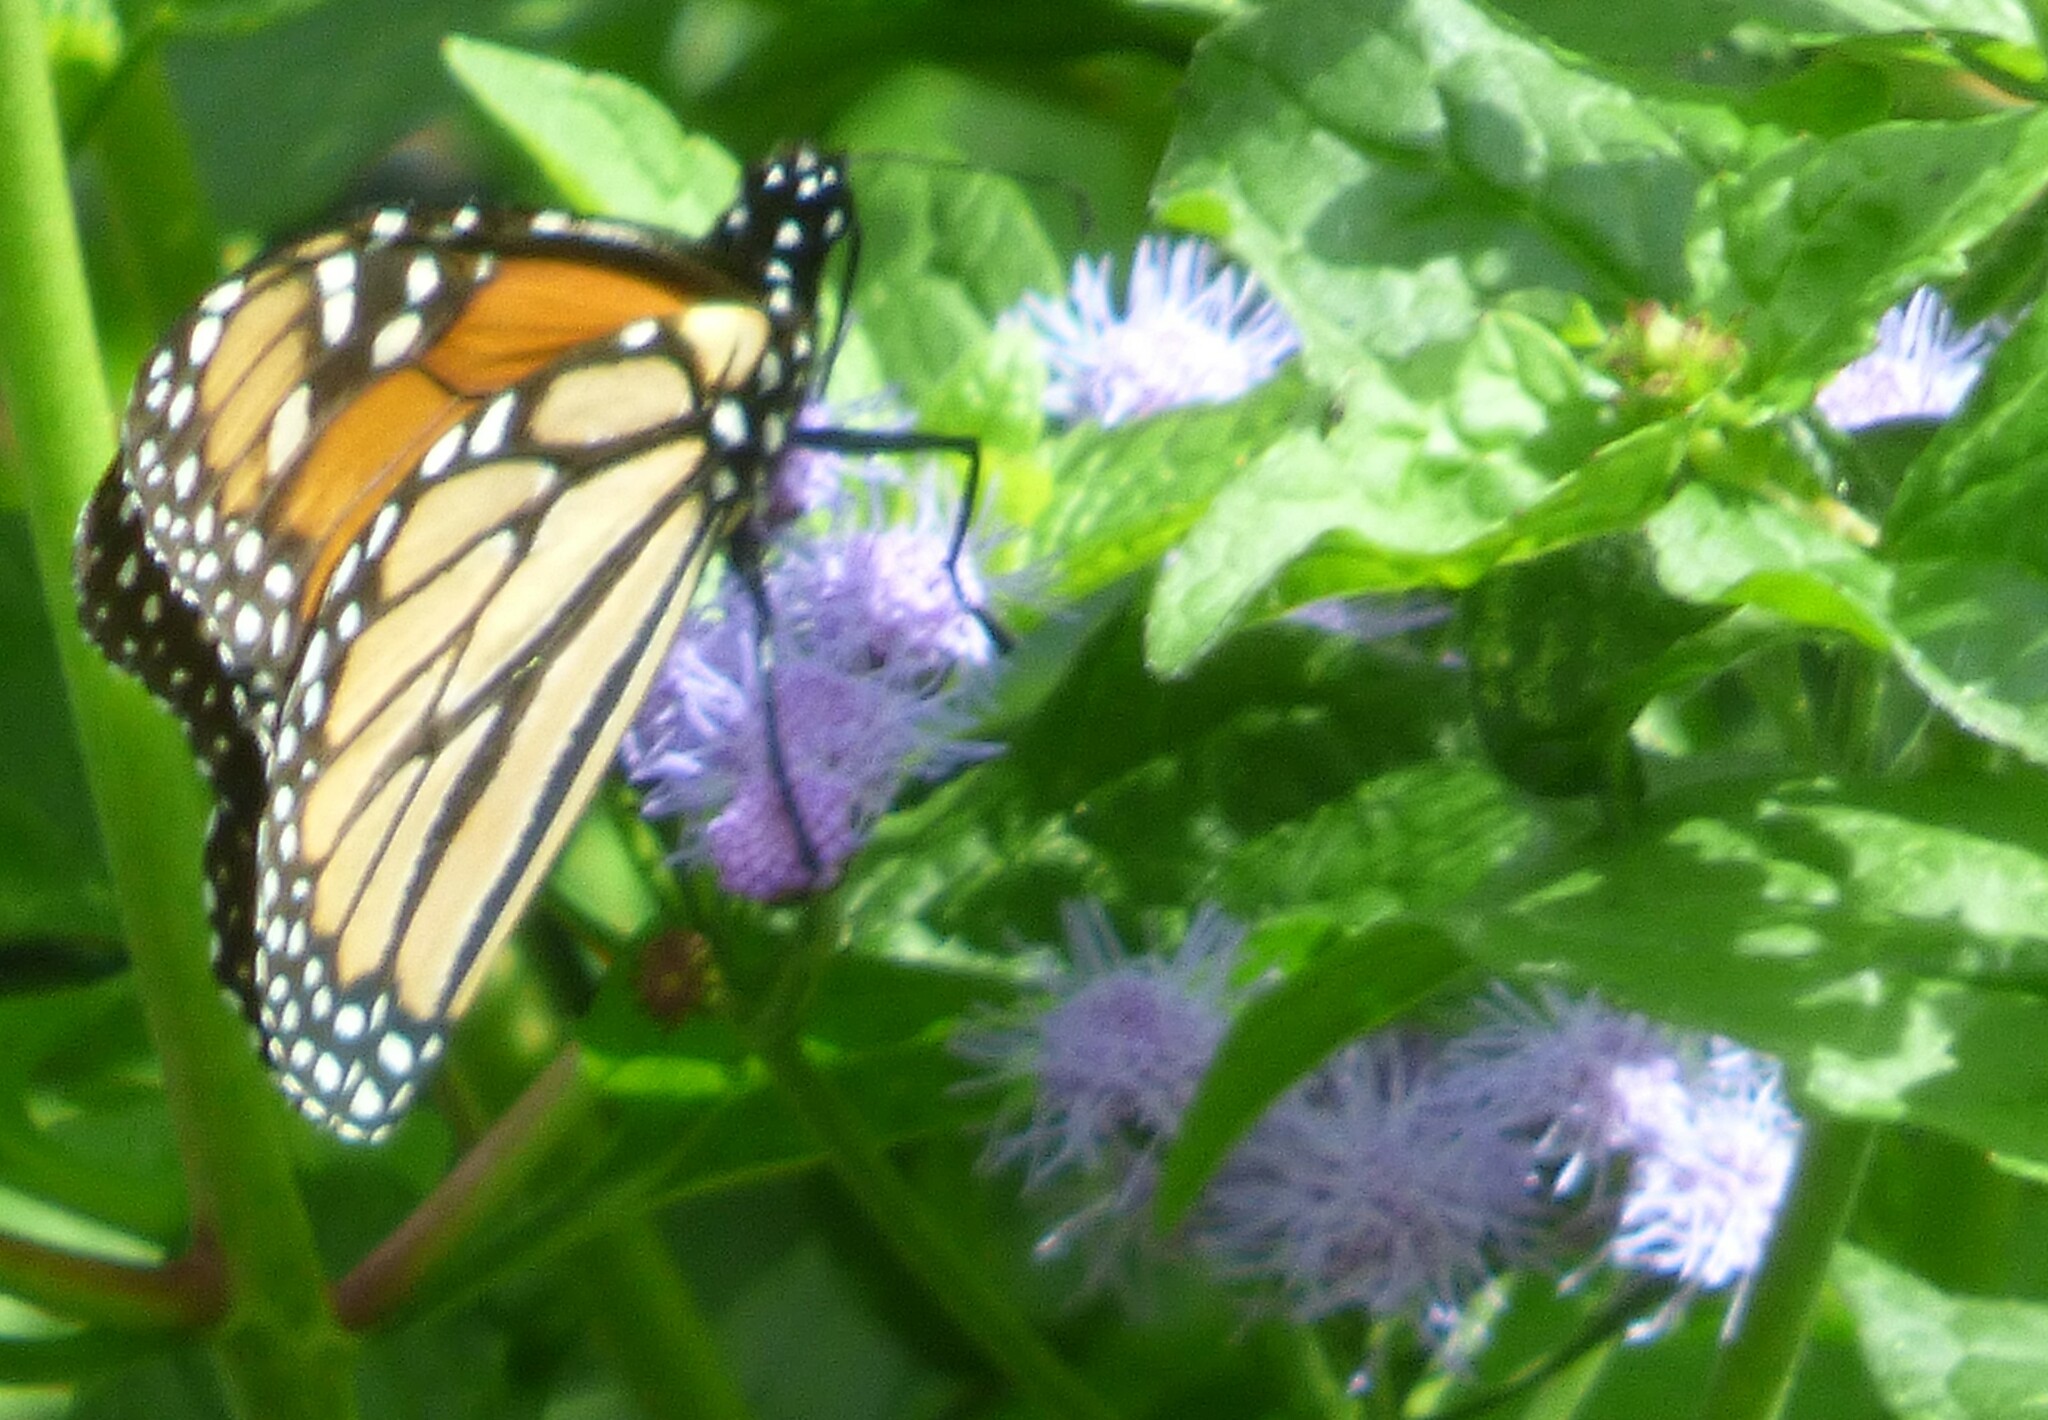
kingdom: Animalia
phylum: Arthropoda
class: Insecta
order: Lepidoptera
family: Nymphalidae
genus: Danaus
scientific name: Danaus plexippus
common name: Monarch
